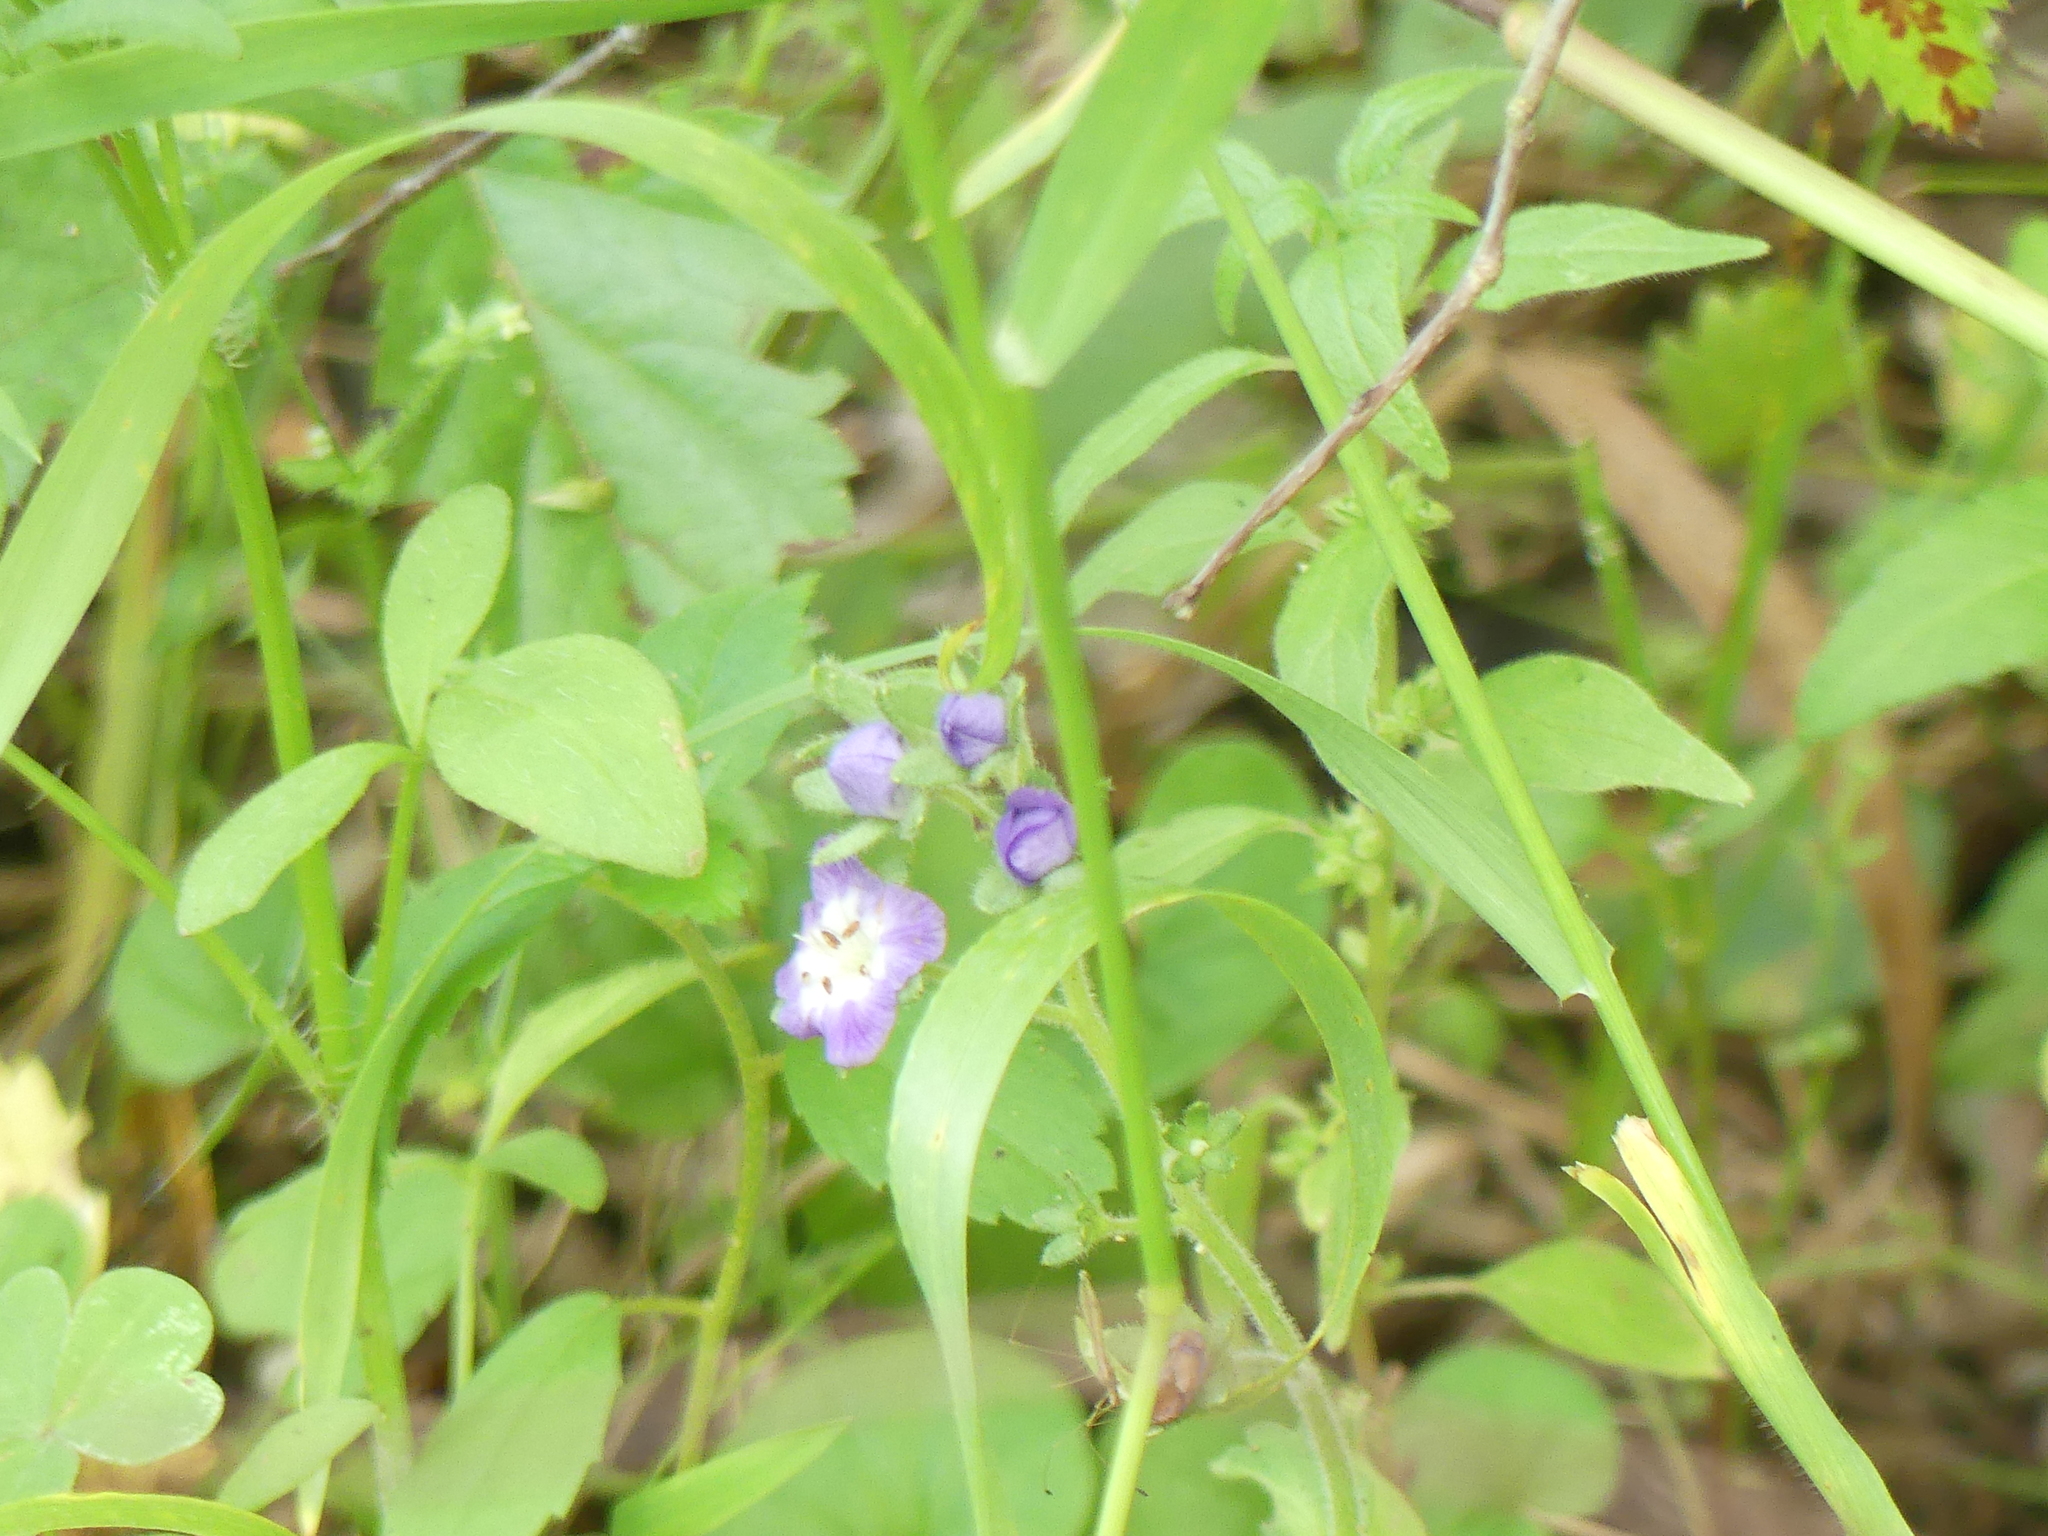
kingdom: Plantae
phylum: Tracheophyta
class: Magnoliopsida
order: Boraginales
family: Hydrophyllaceae
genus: Nemophila
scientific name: Nemophila phacelioides
